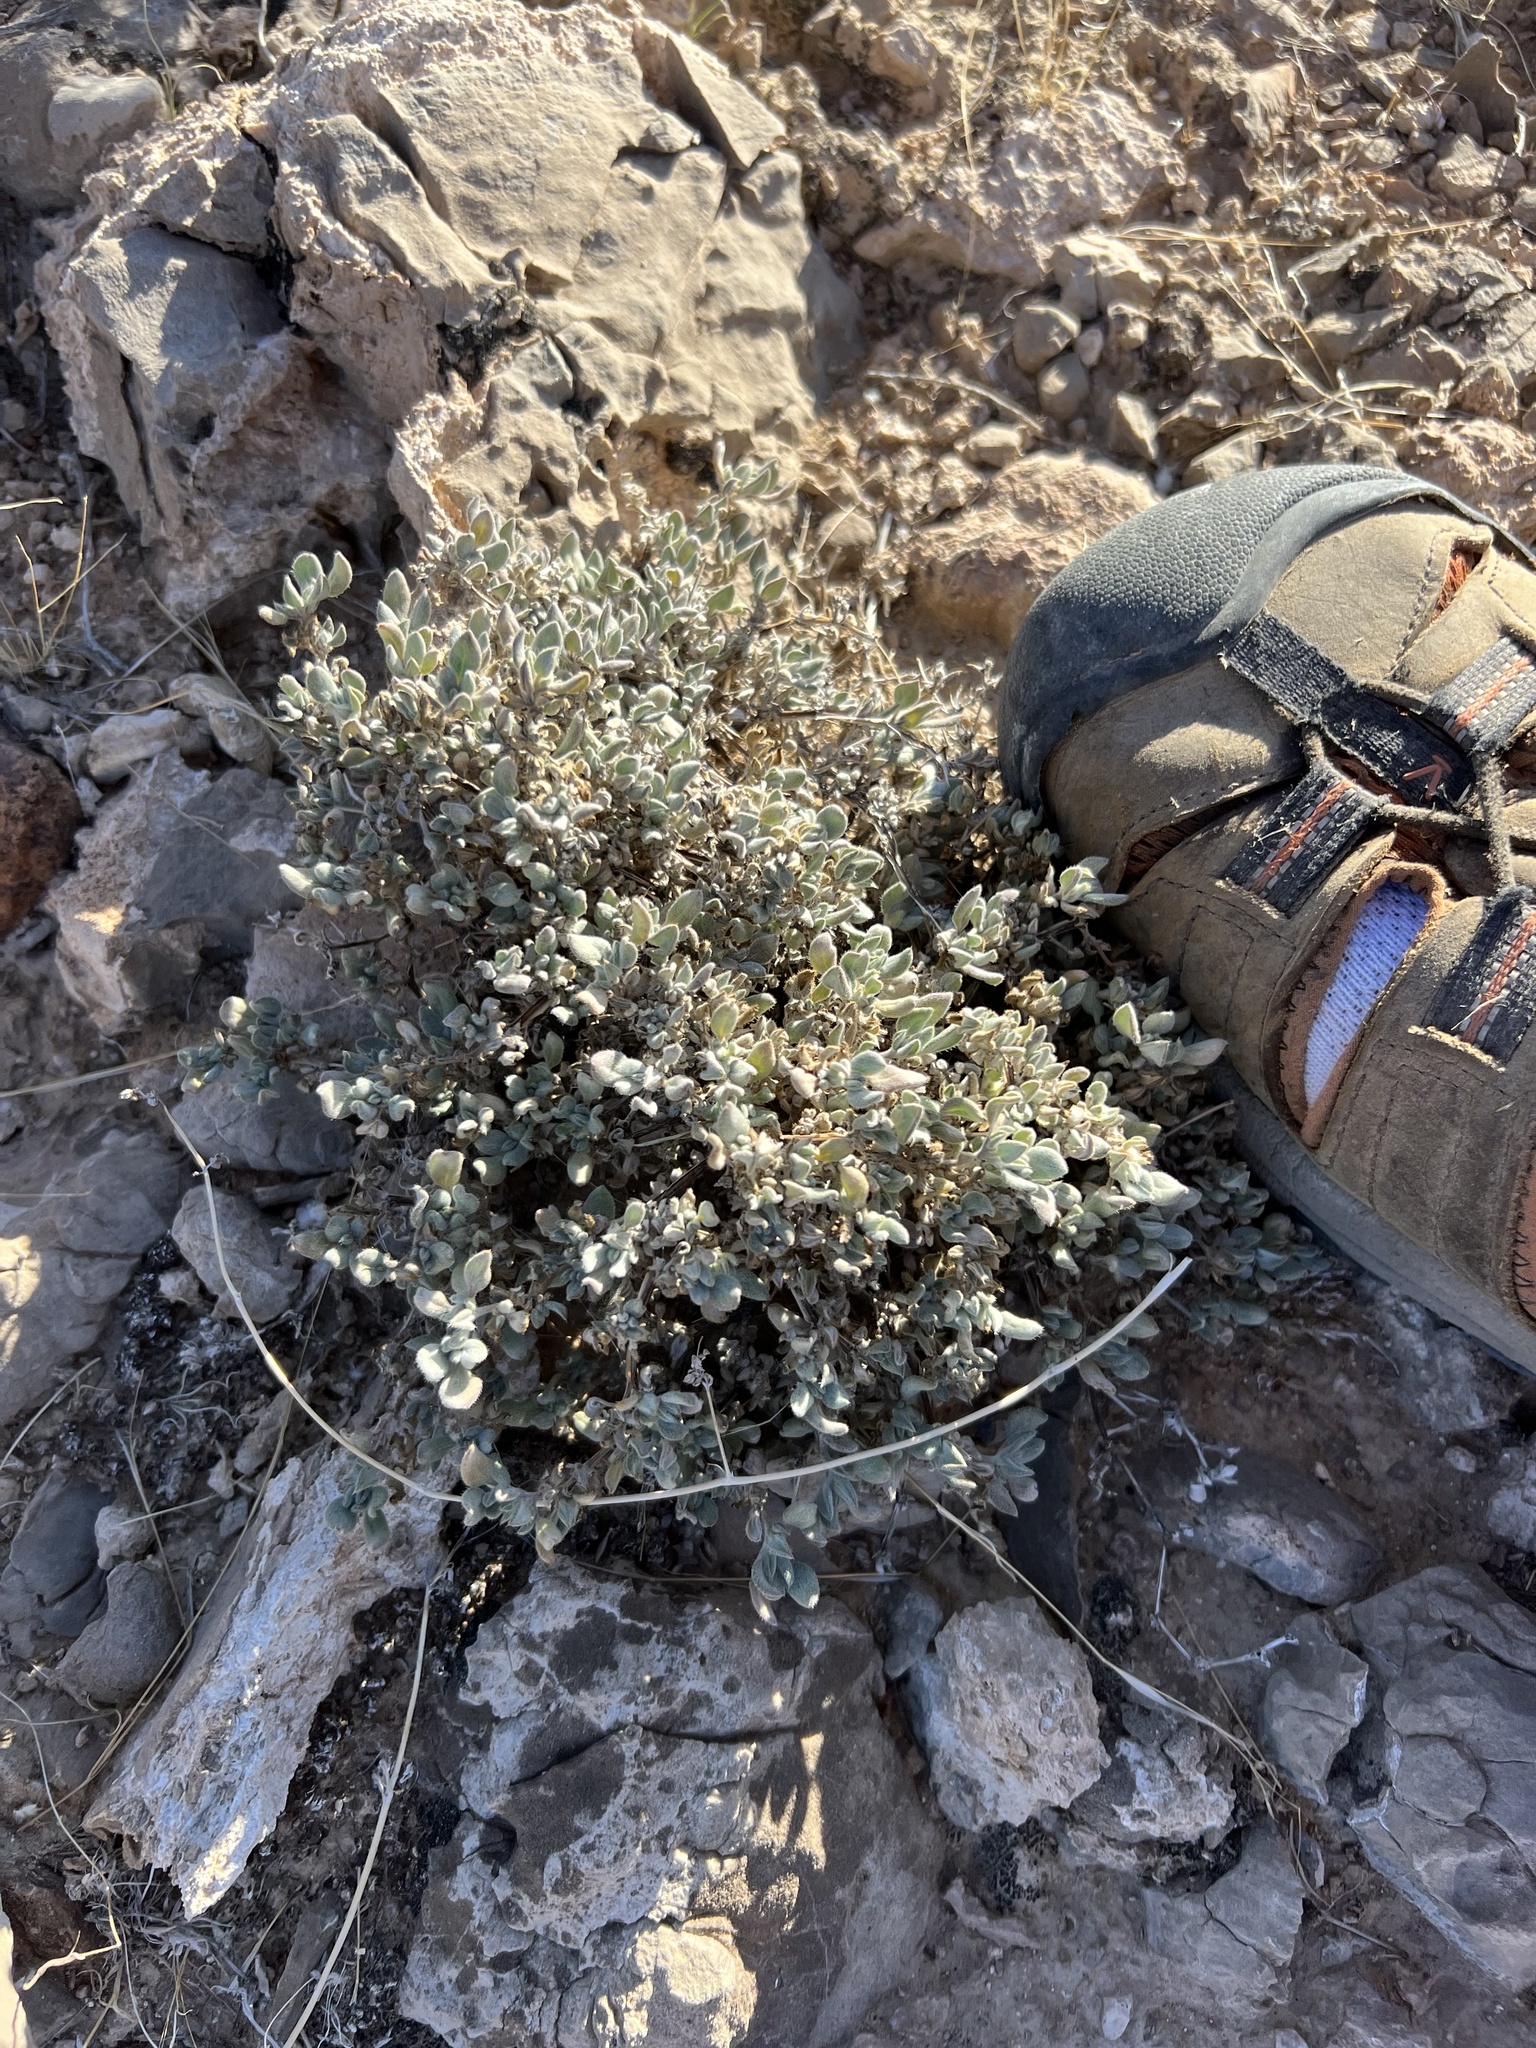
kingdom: Plantae
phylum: Tracheophyta
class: Magnoliopsida
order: Boraginales
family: Ehretiaceae
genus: Tiquilia
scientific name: Tiquilia canescens
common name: Hairy tiquilia
